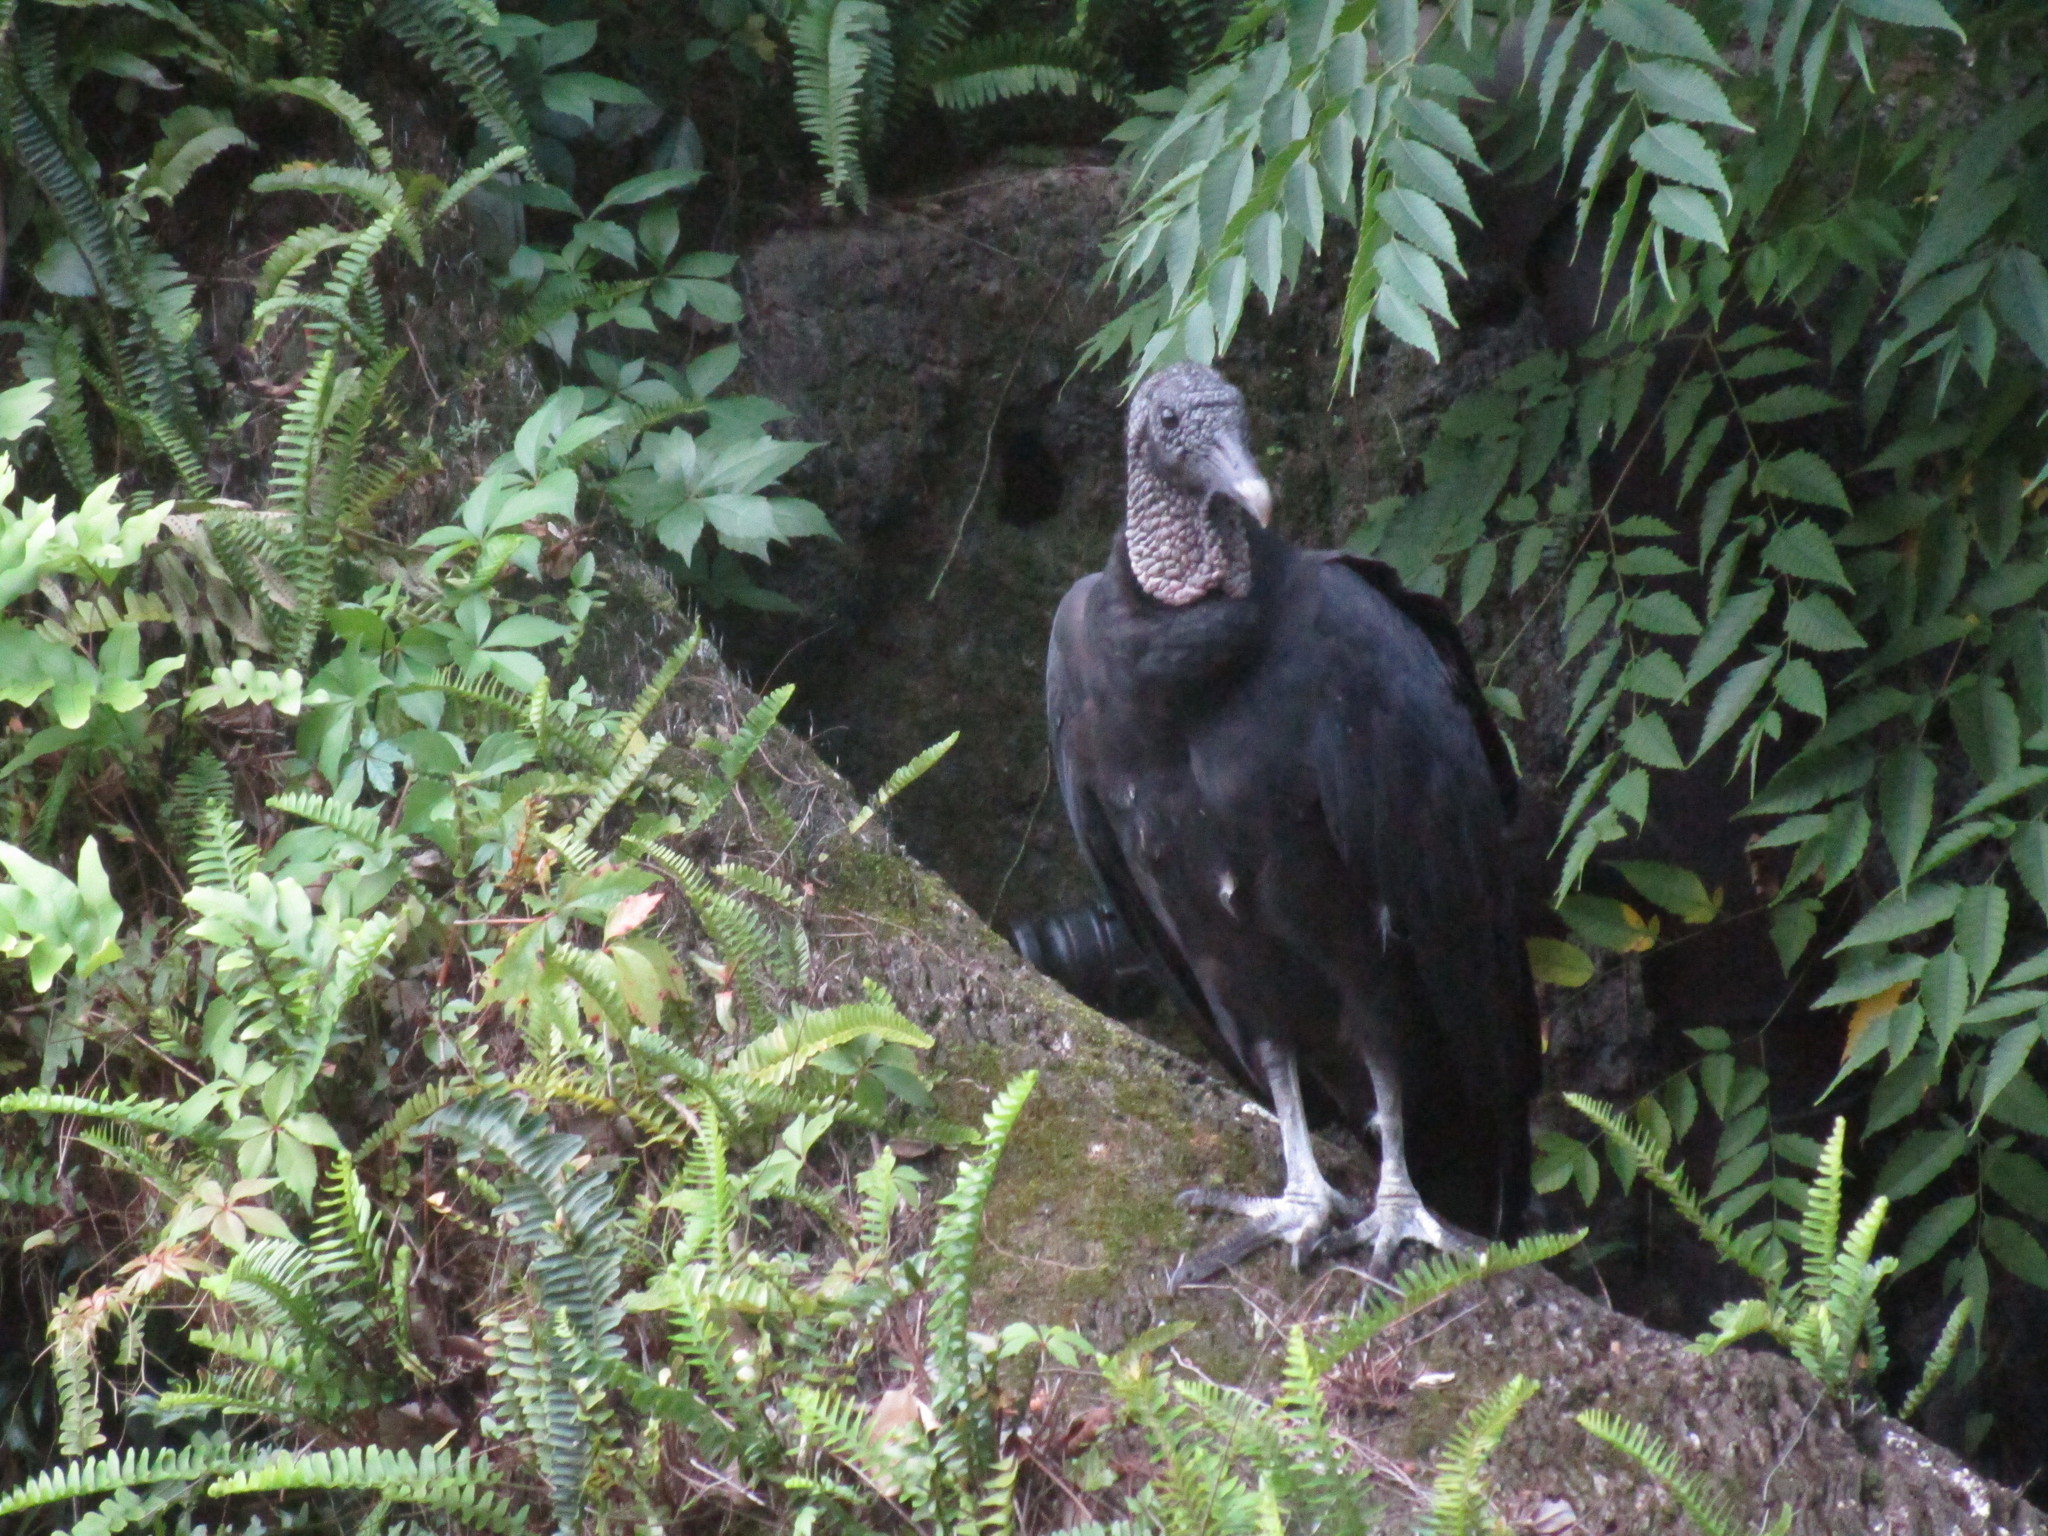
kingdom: Animalia
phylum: Chordata
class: Aves
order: Accipitriformes
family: Cathartidae
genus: Coragyps
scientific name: Coragyps atratus
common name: Black vulture
